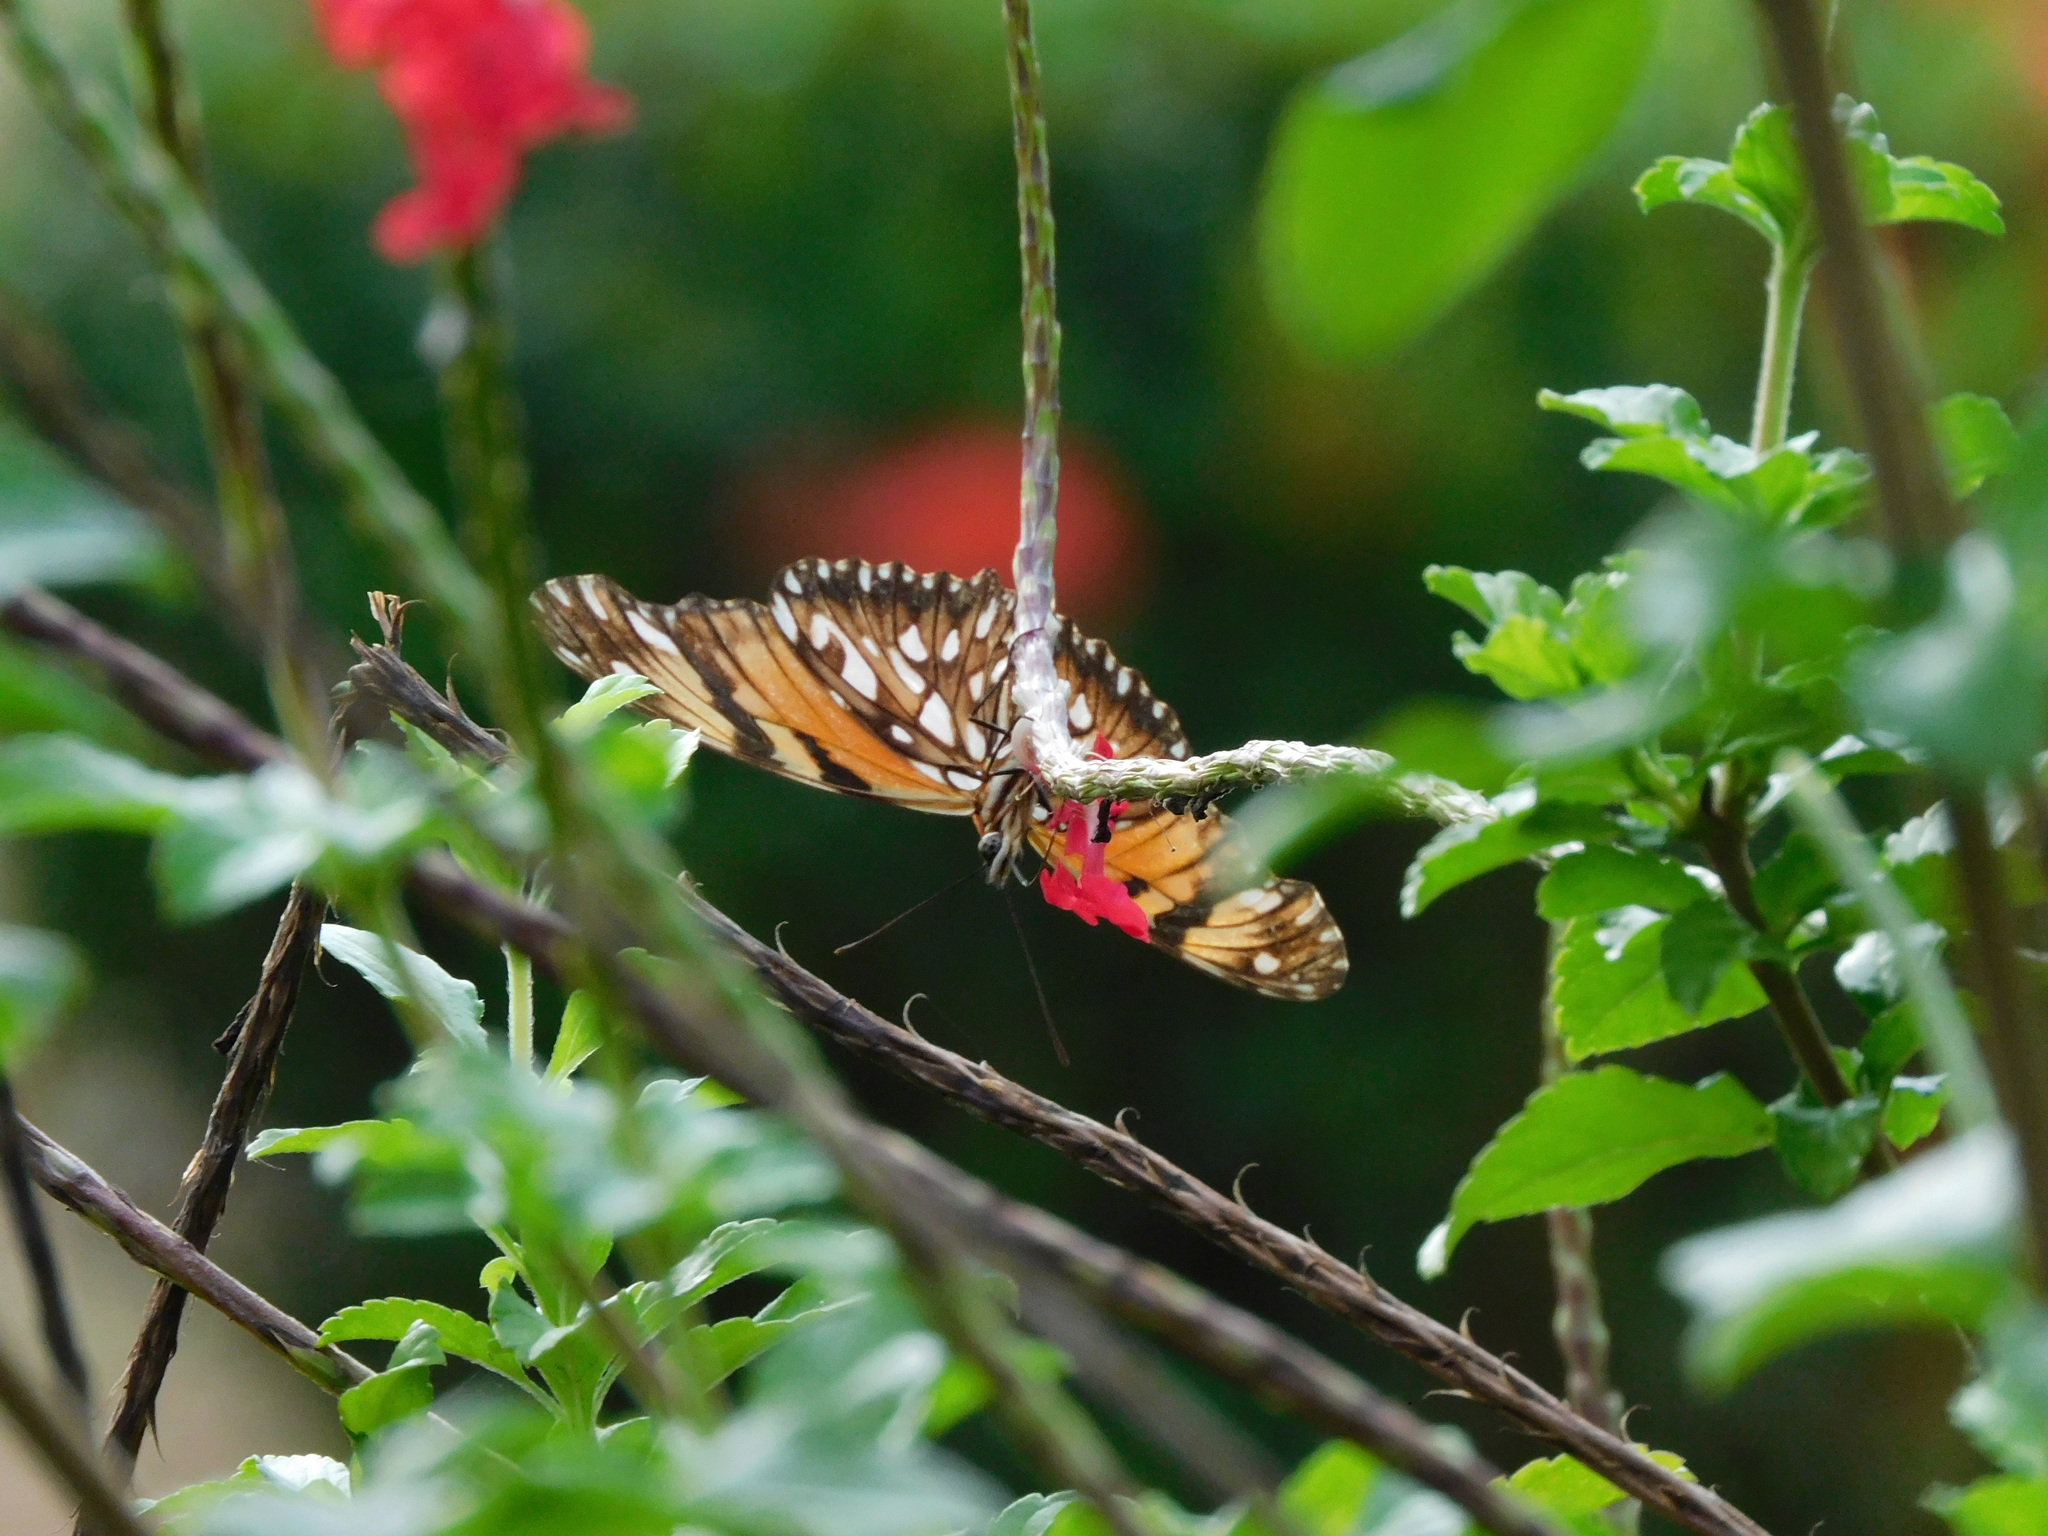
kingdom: Animalia
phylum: Arthropoda
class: Insecta
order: Lepidoptera
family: Nymphalidae
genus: Dione
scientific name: Dione juno
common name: Juno silverspot
